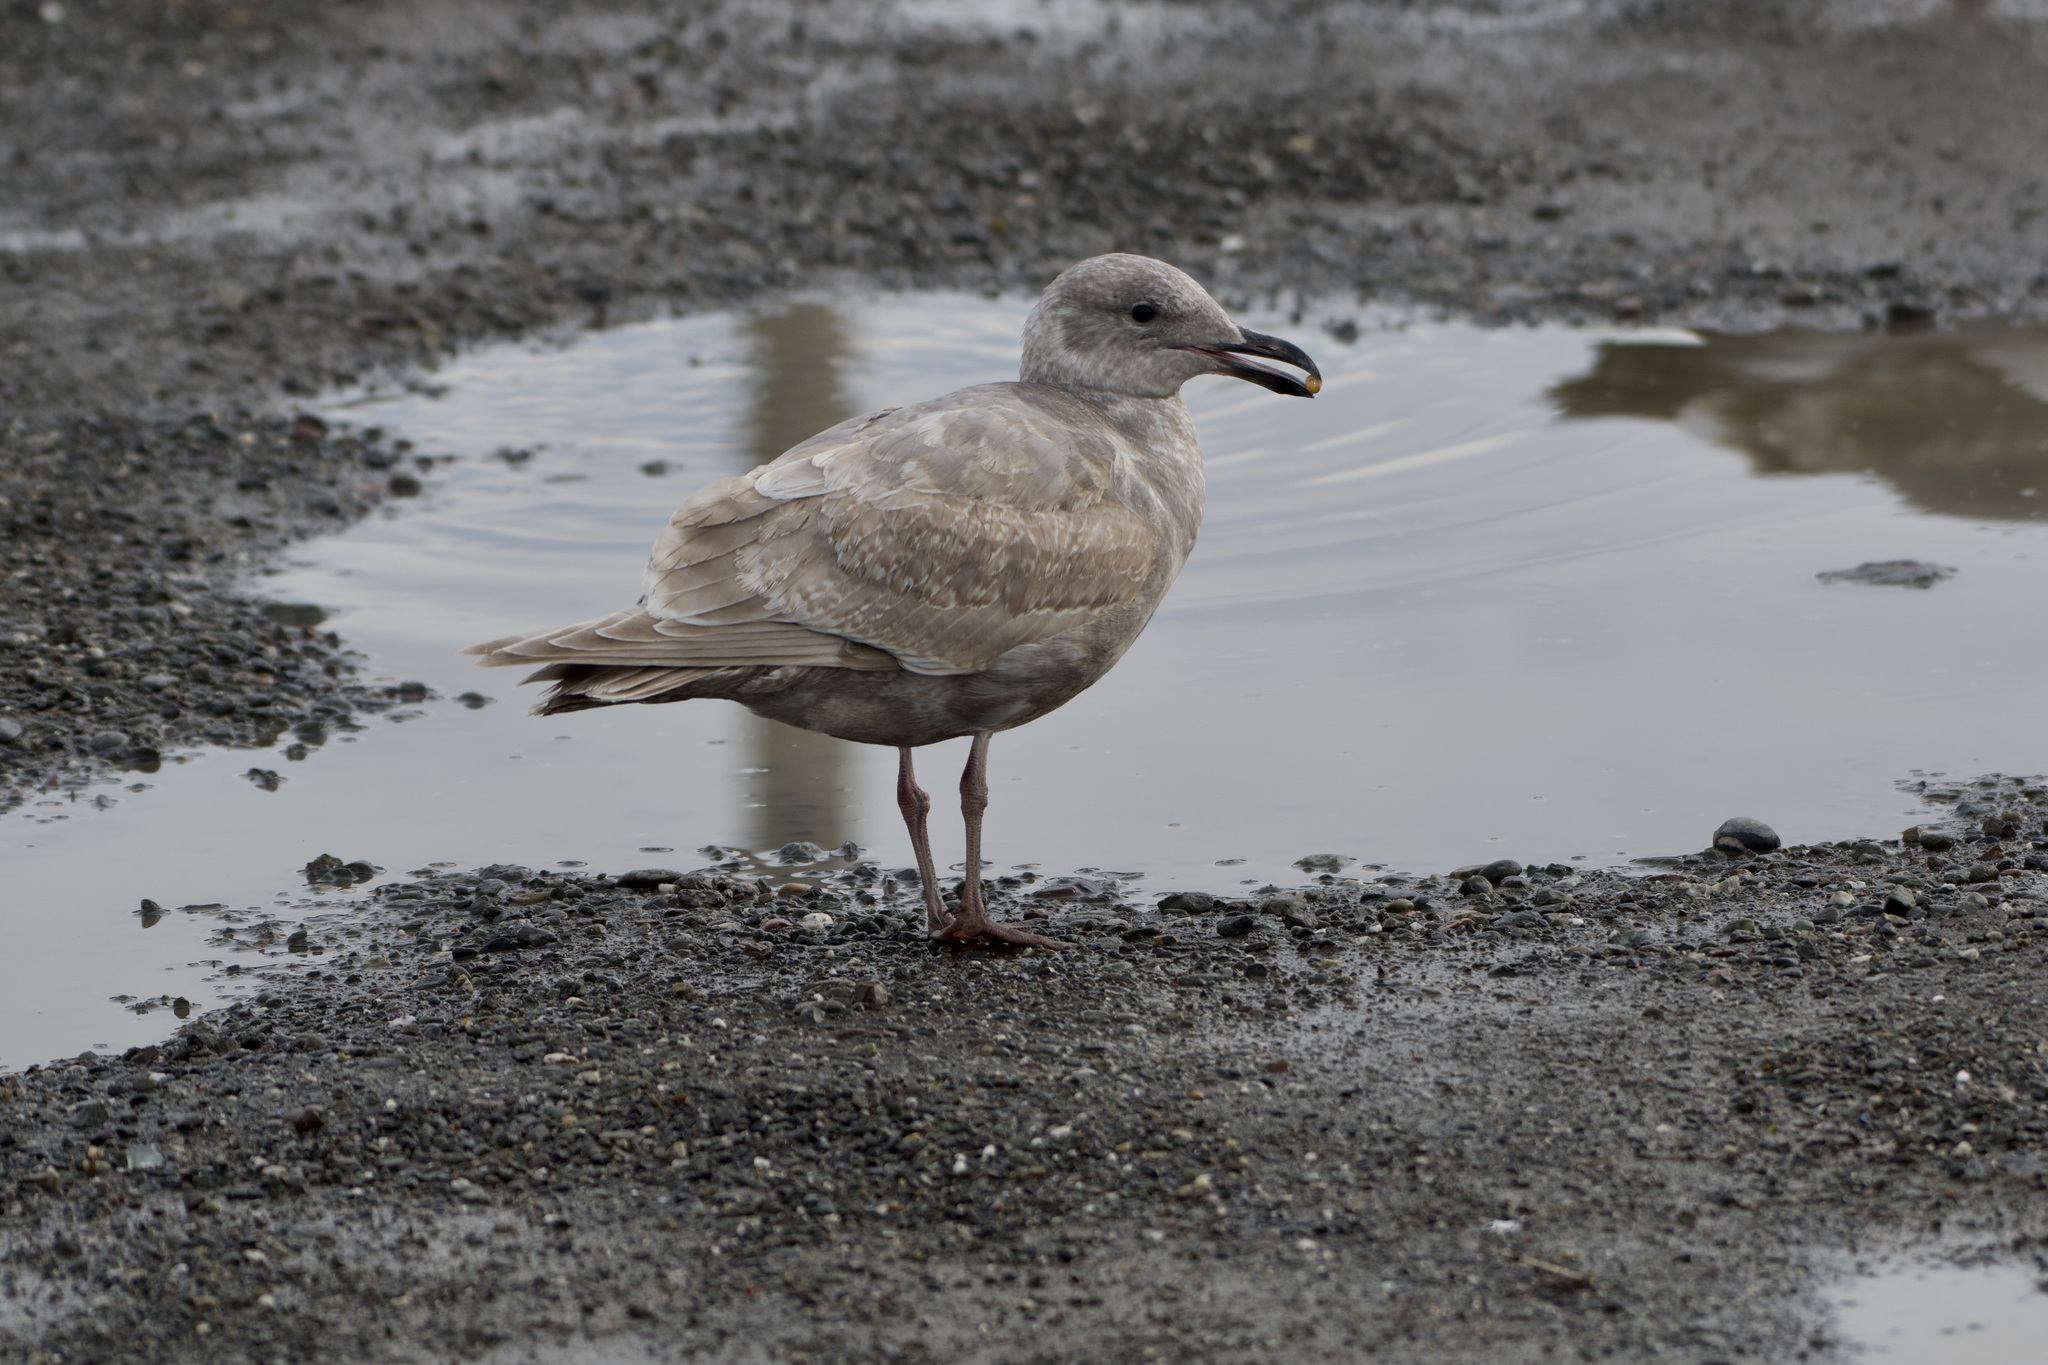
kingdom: Animalia
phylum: Chordata
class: Aves
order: Charadriiformes
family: Laridae
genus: Larus
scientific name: Larus glaucescens
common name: Glaucous-winged gull
